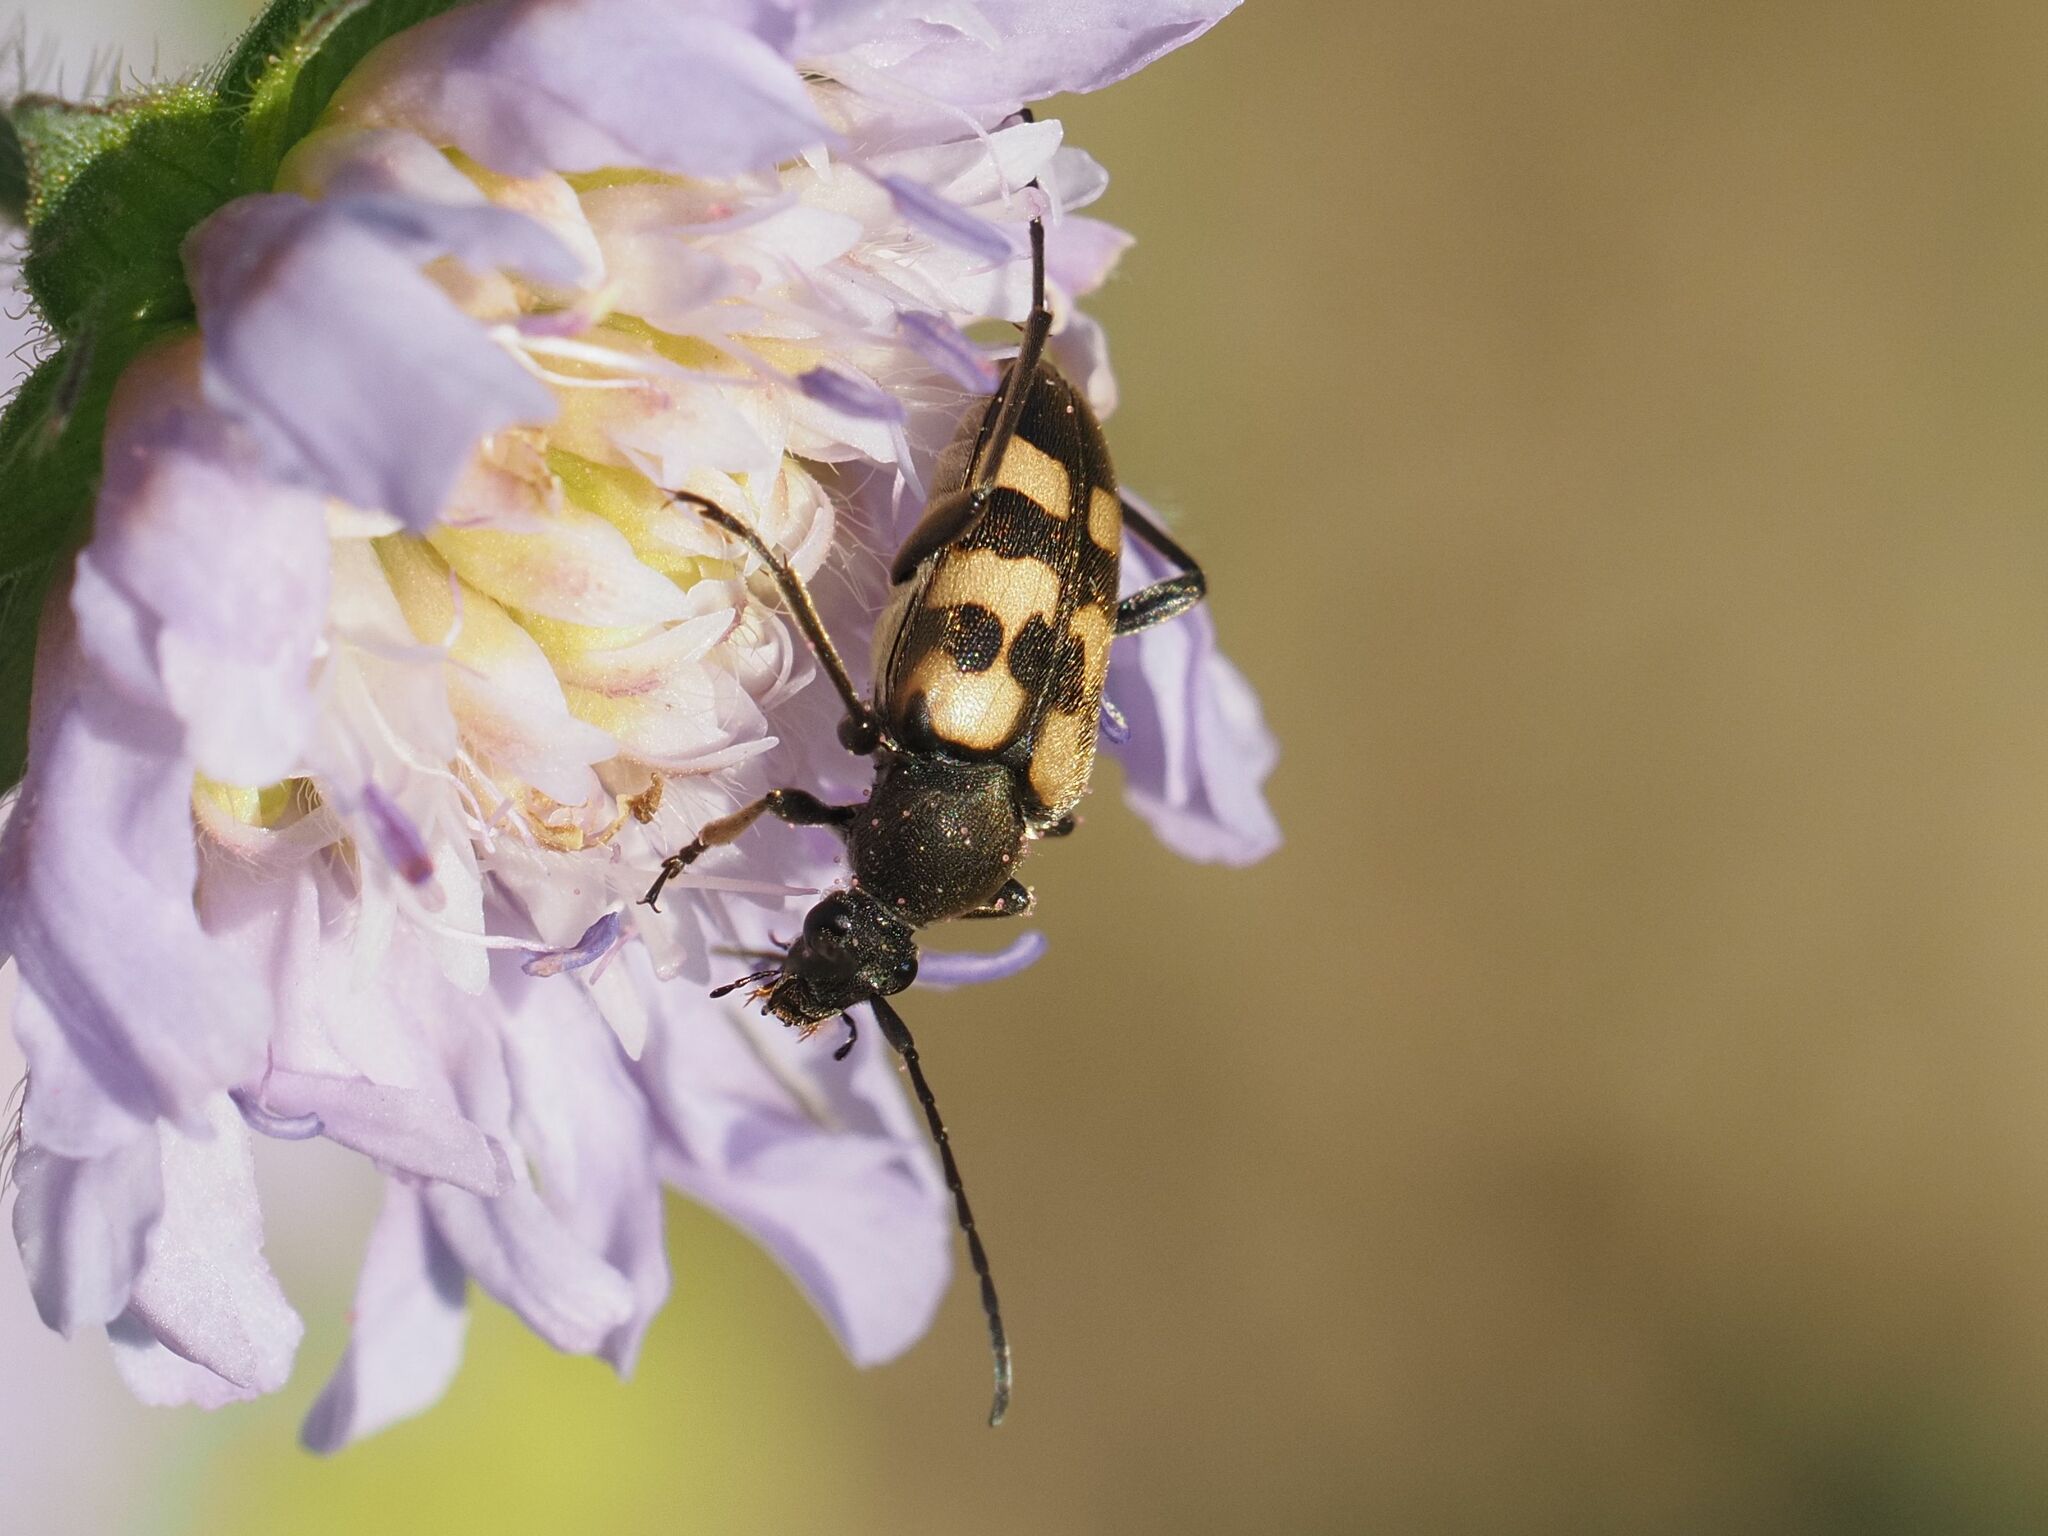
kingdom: Animalia
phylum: Arthropoda
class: Insecta
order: Coleoptera
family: Cerambycidae
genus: Pachytodes
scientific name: Pachytodes
